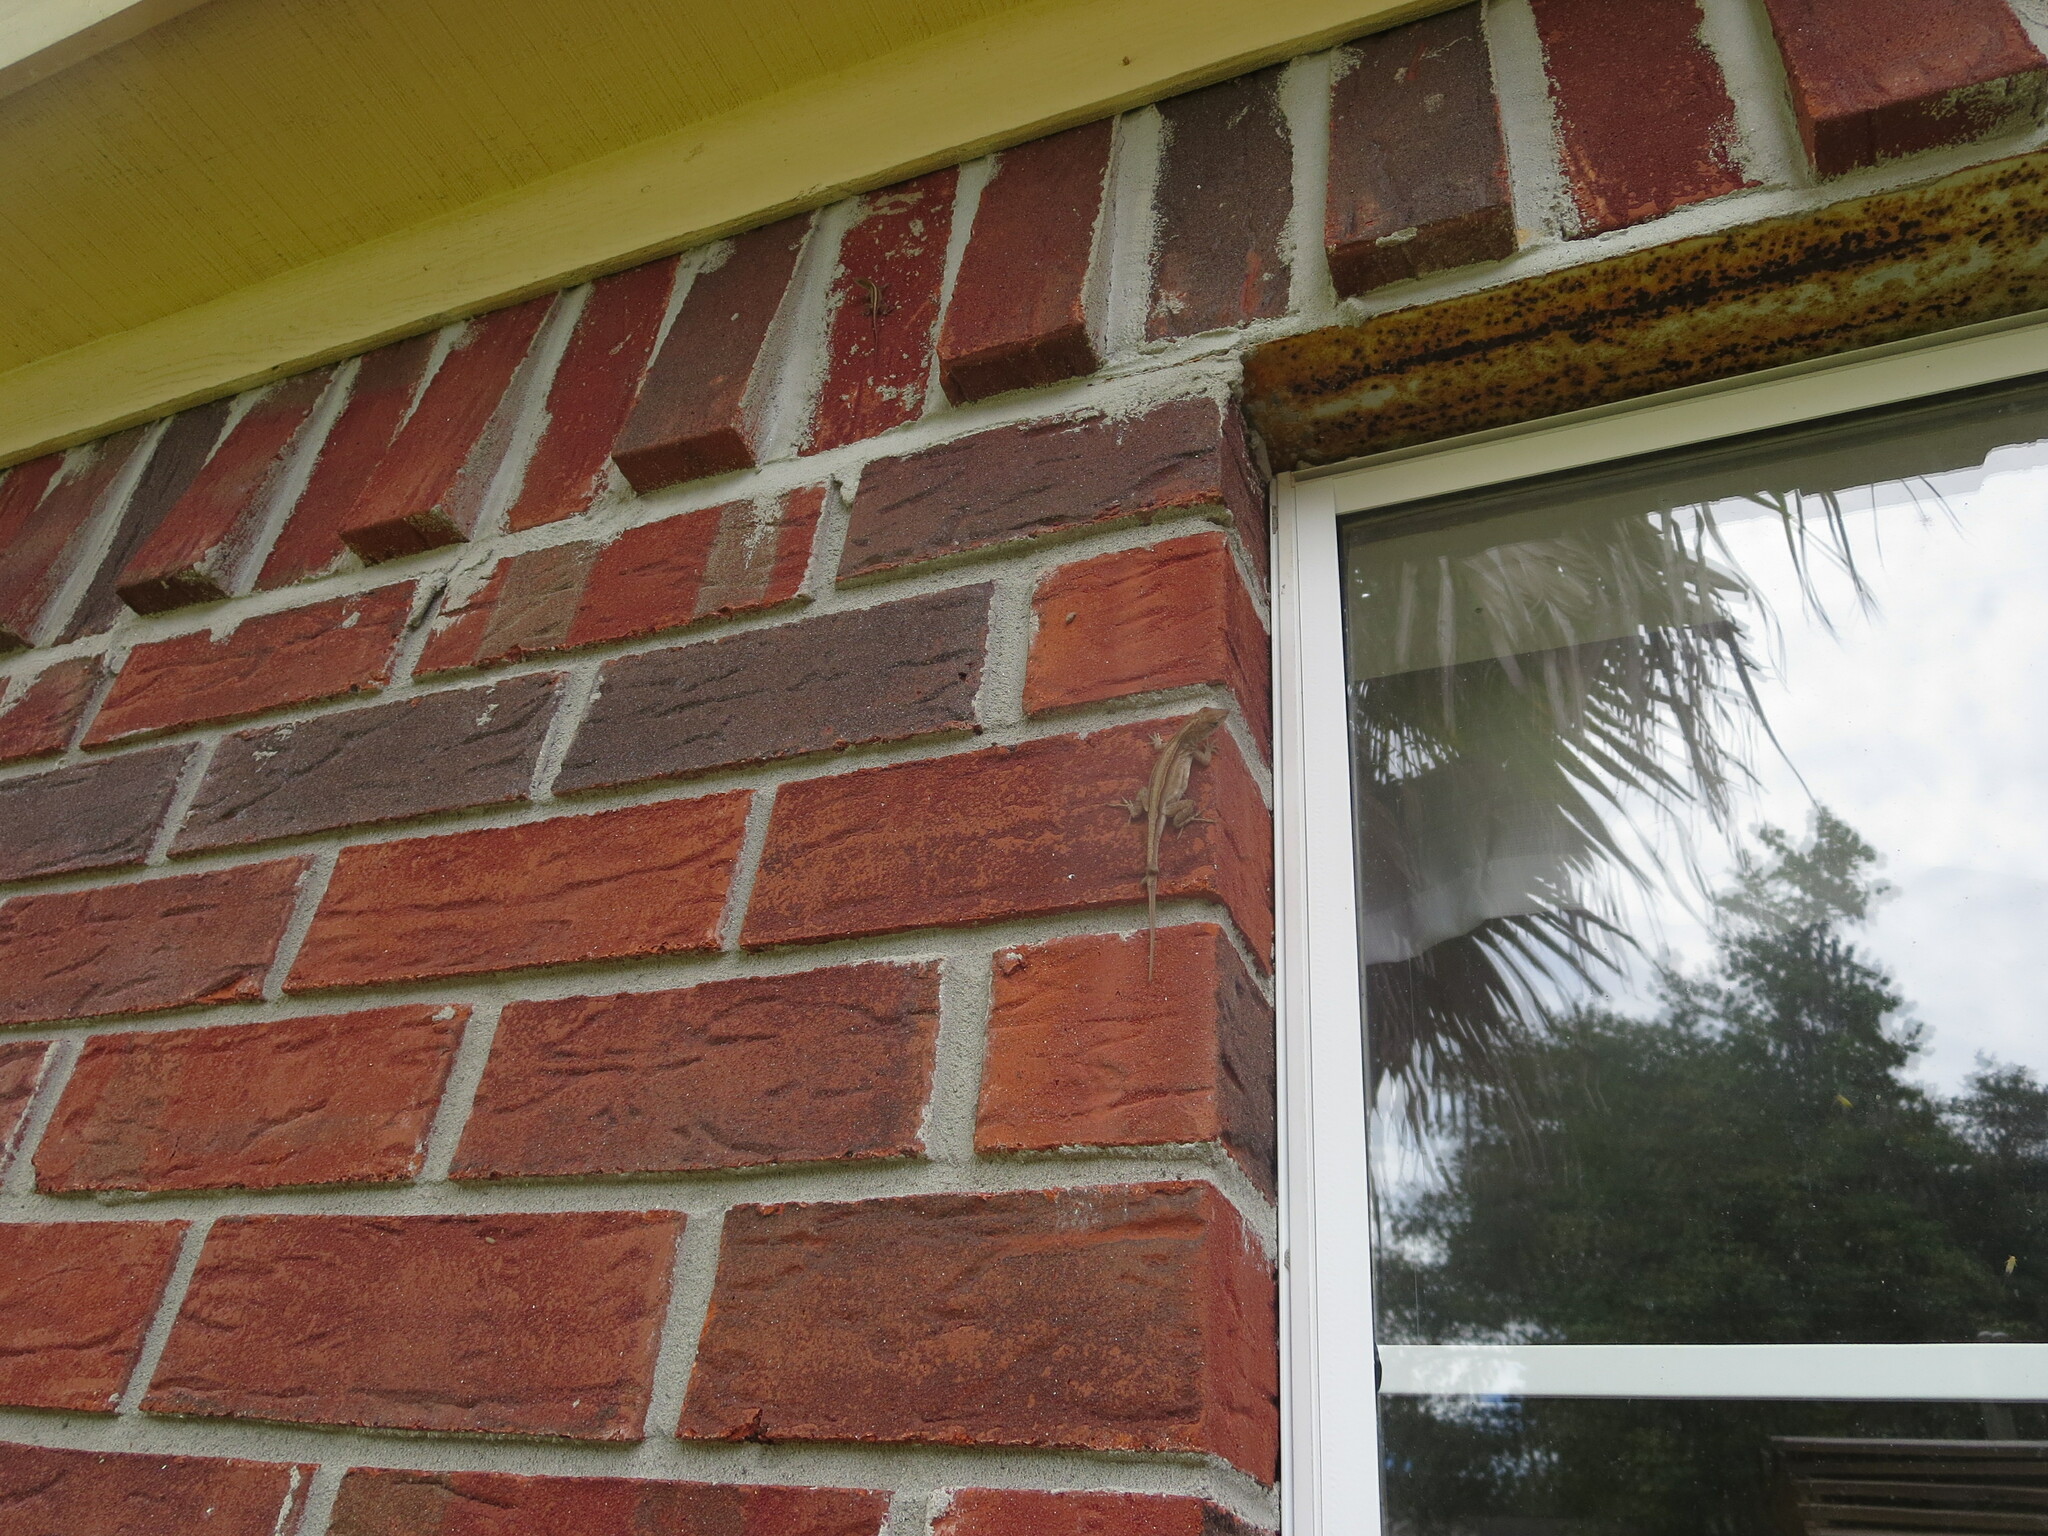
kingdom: Animalia
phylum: Chordata
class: Squamata
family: Dactyloidae
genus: Anolis
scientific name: Anolis sagrei
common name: Brown anole
